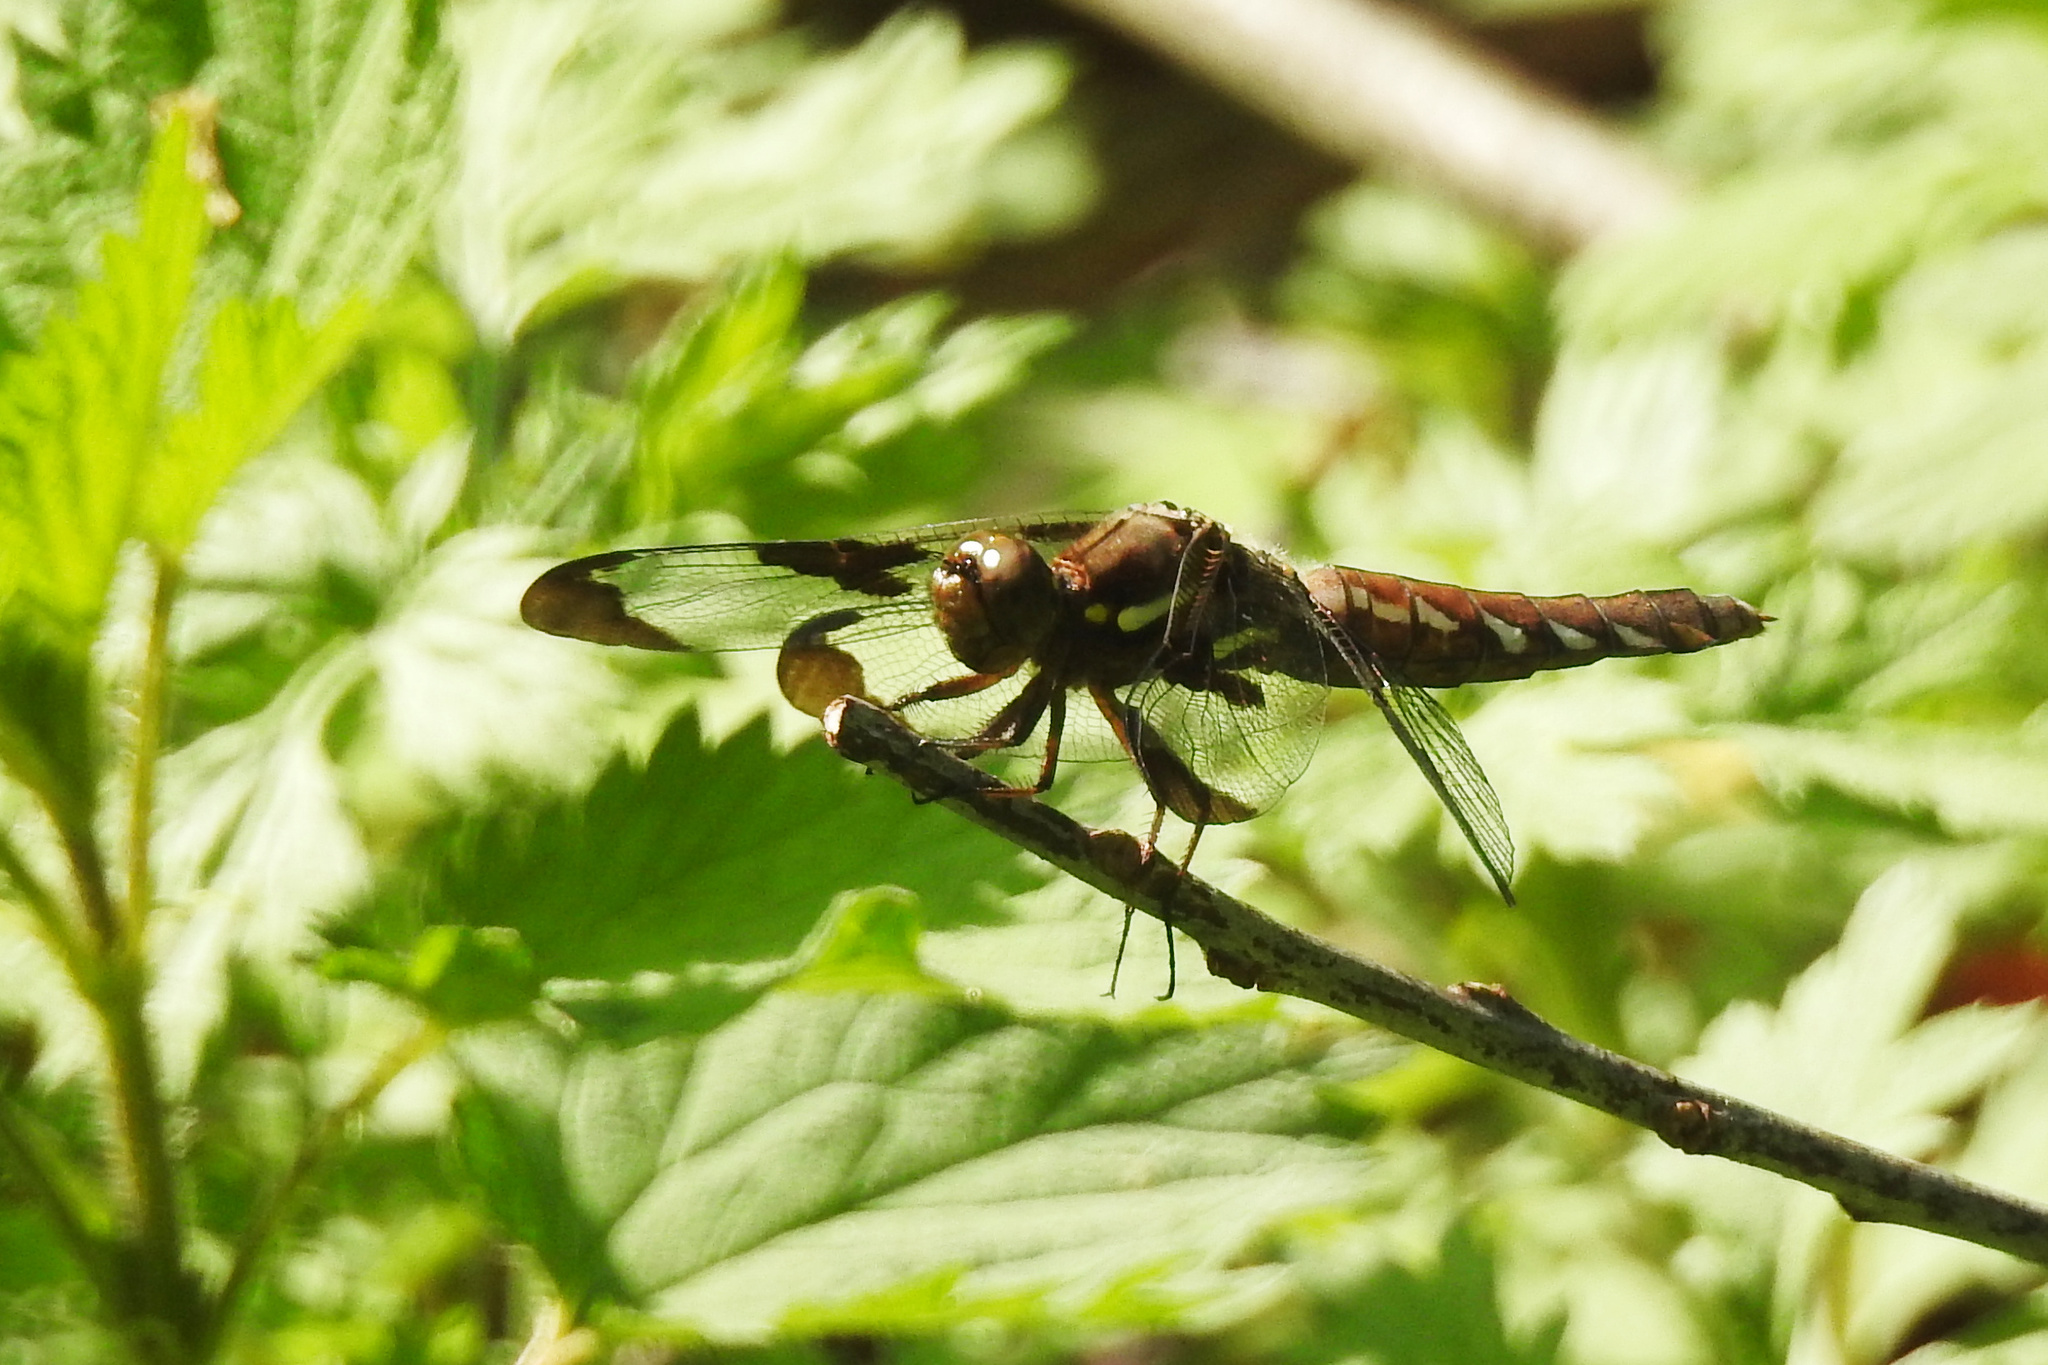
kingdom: Animalia
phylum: Arthropoda
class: Insecta
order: Odonata
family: Libellulidae
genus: Plathemis
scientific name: Plathemis lydia
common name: Common whitetail
